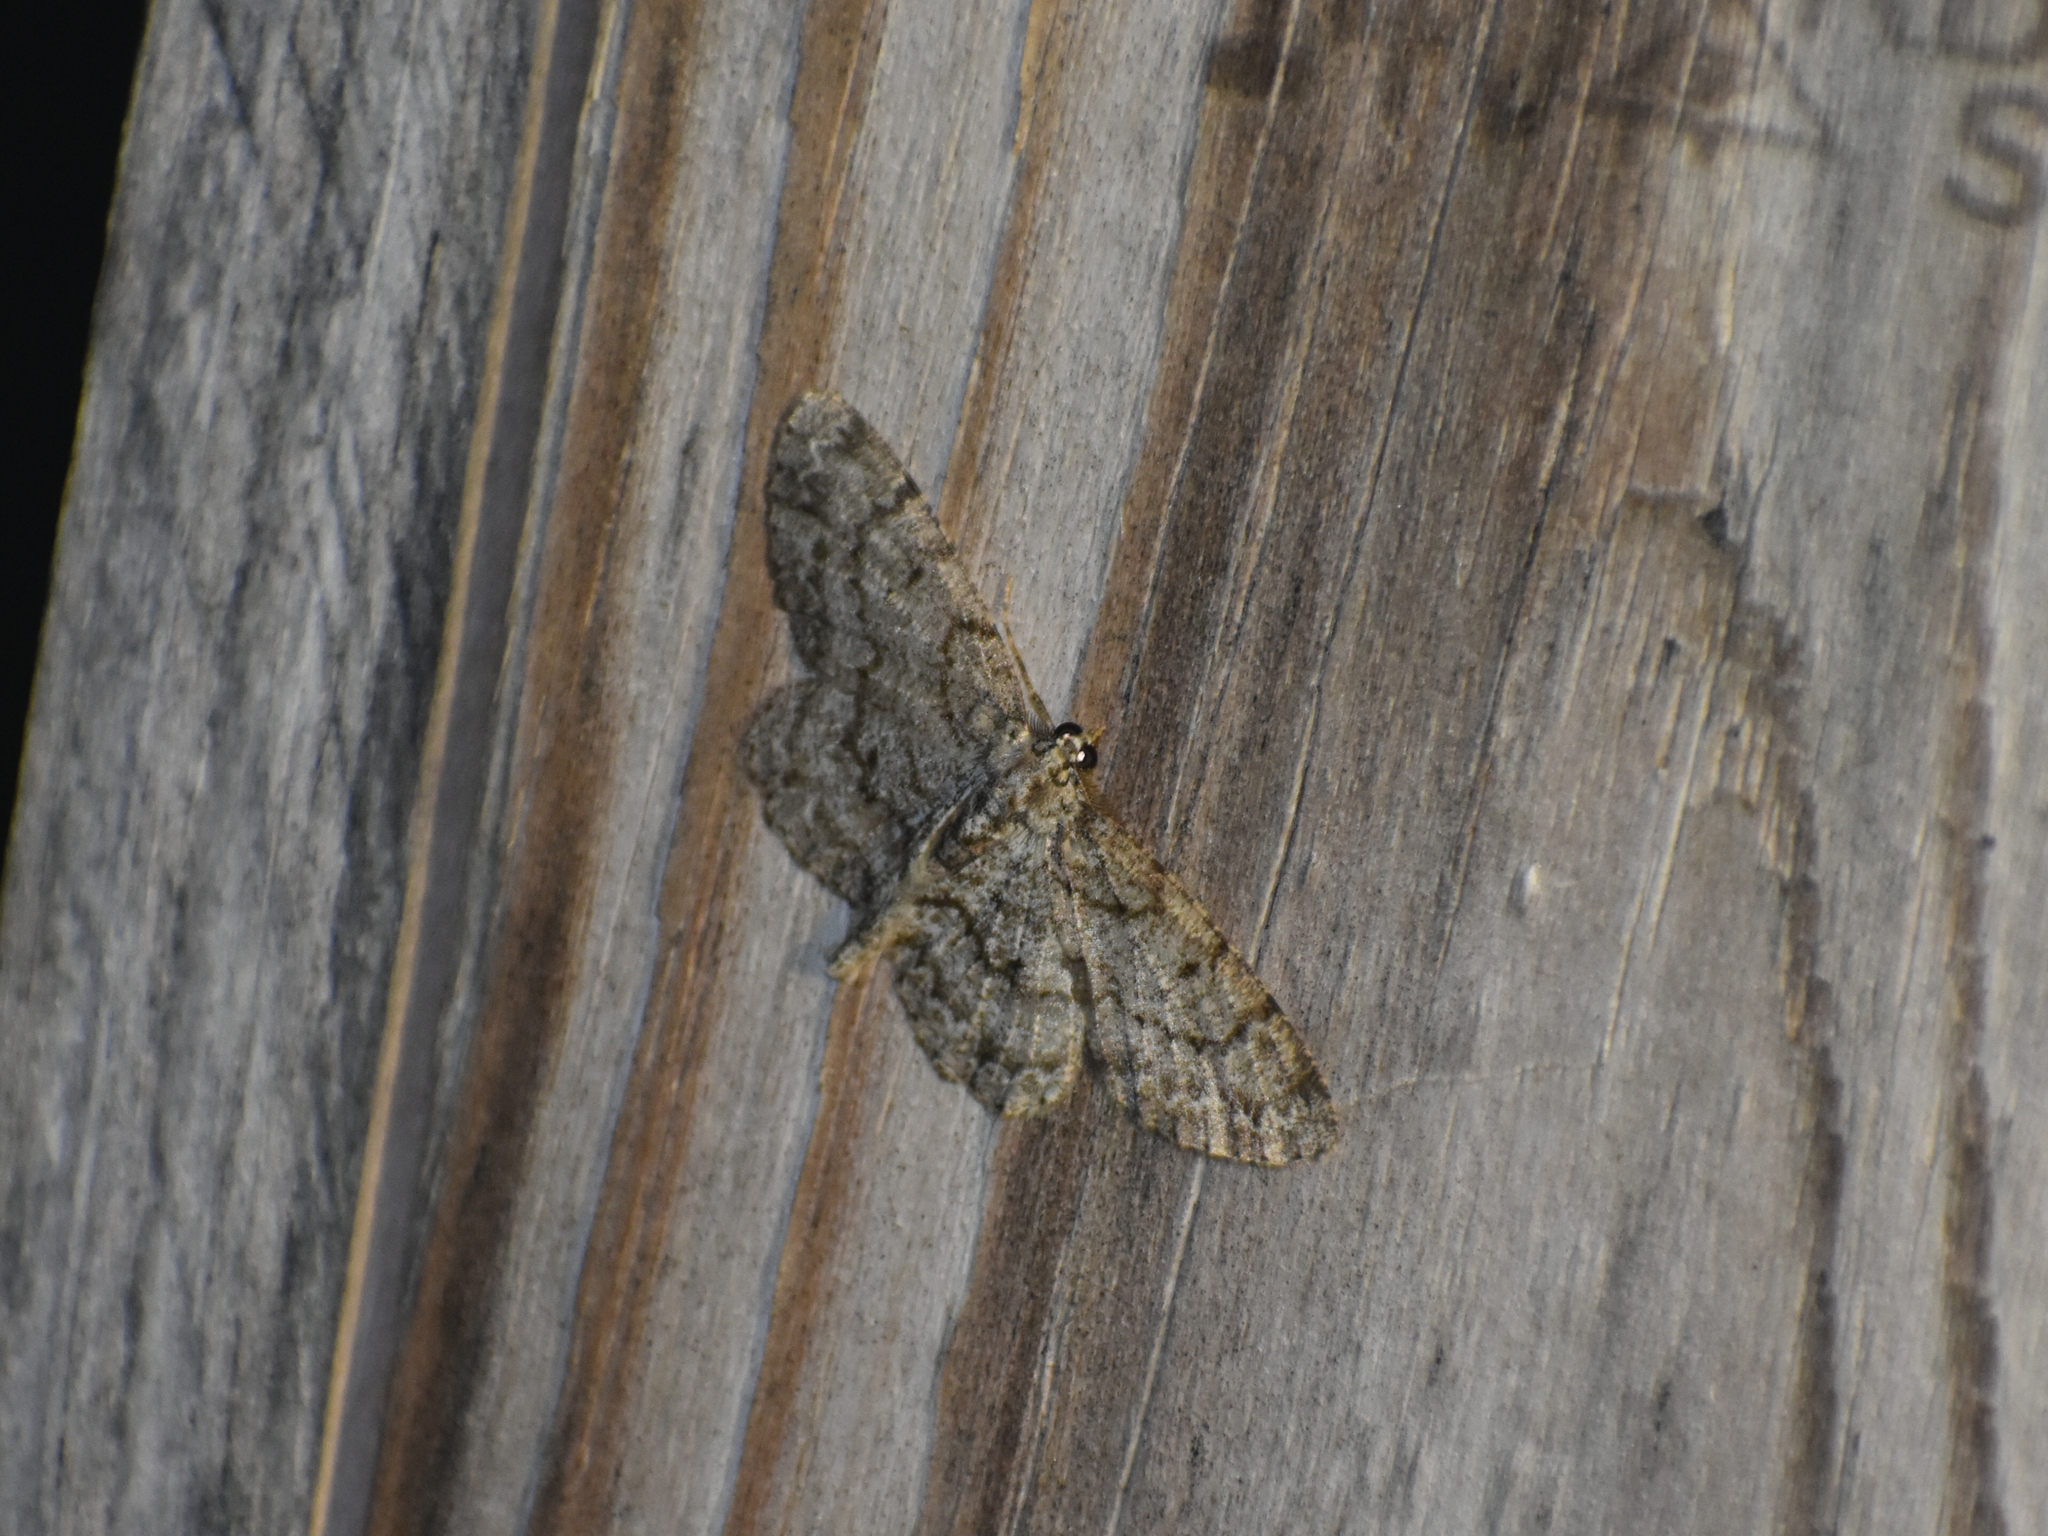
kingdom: Animalia
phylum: Arthropoda
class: Insecta
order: Lepidoptera
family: Geometridae
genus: Protoboarmia
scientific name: Protoboarmia porcelaria
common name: Porcelain gray
